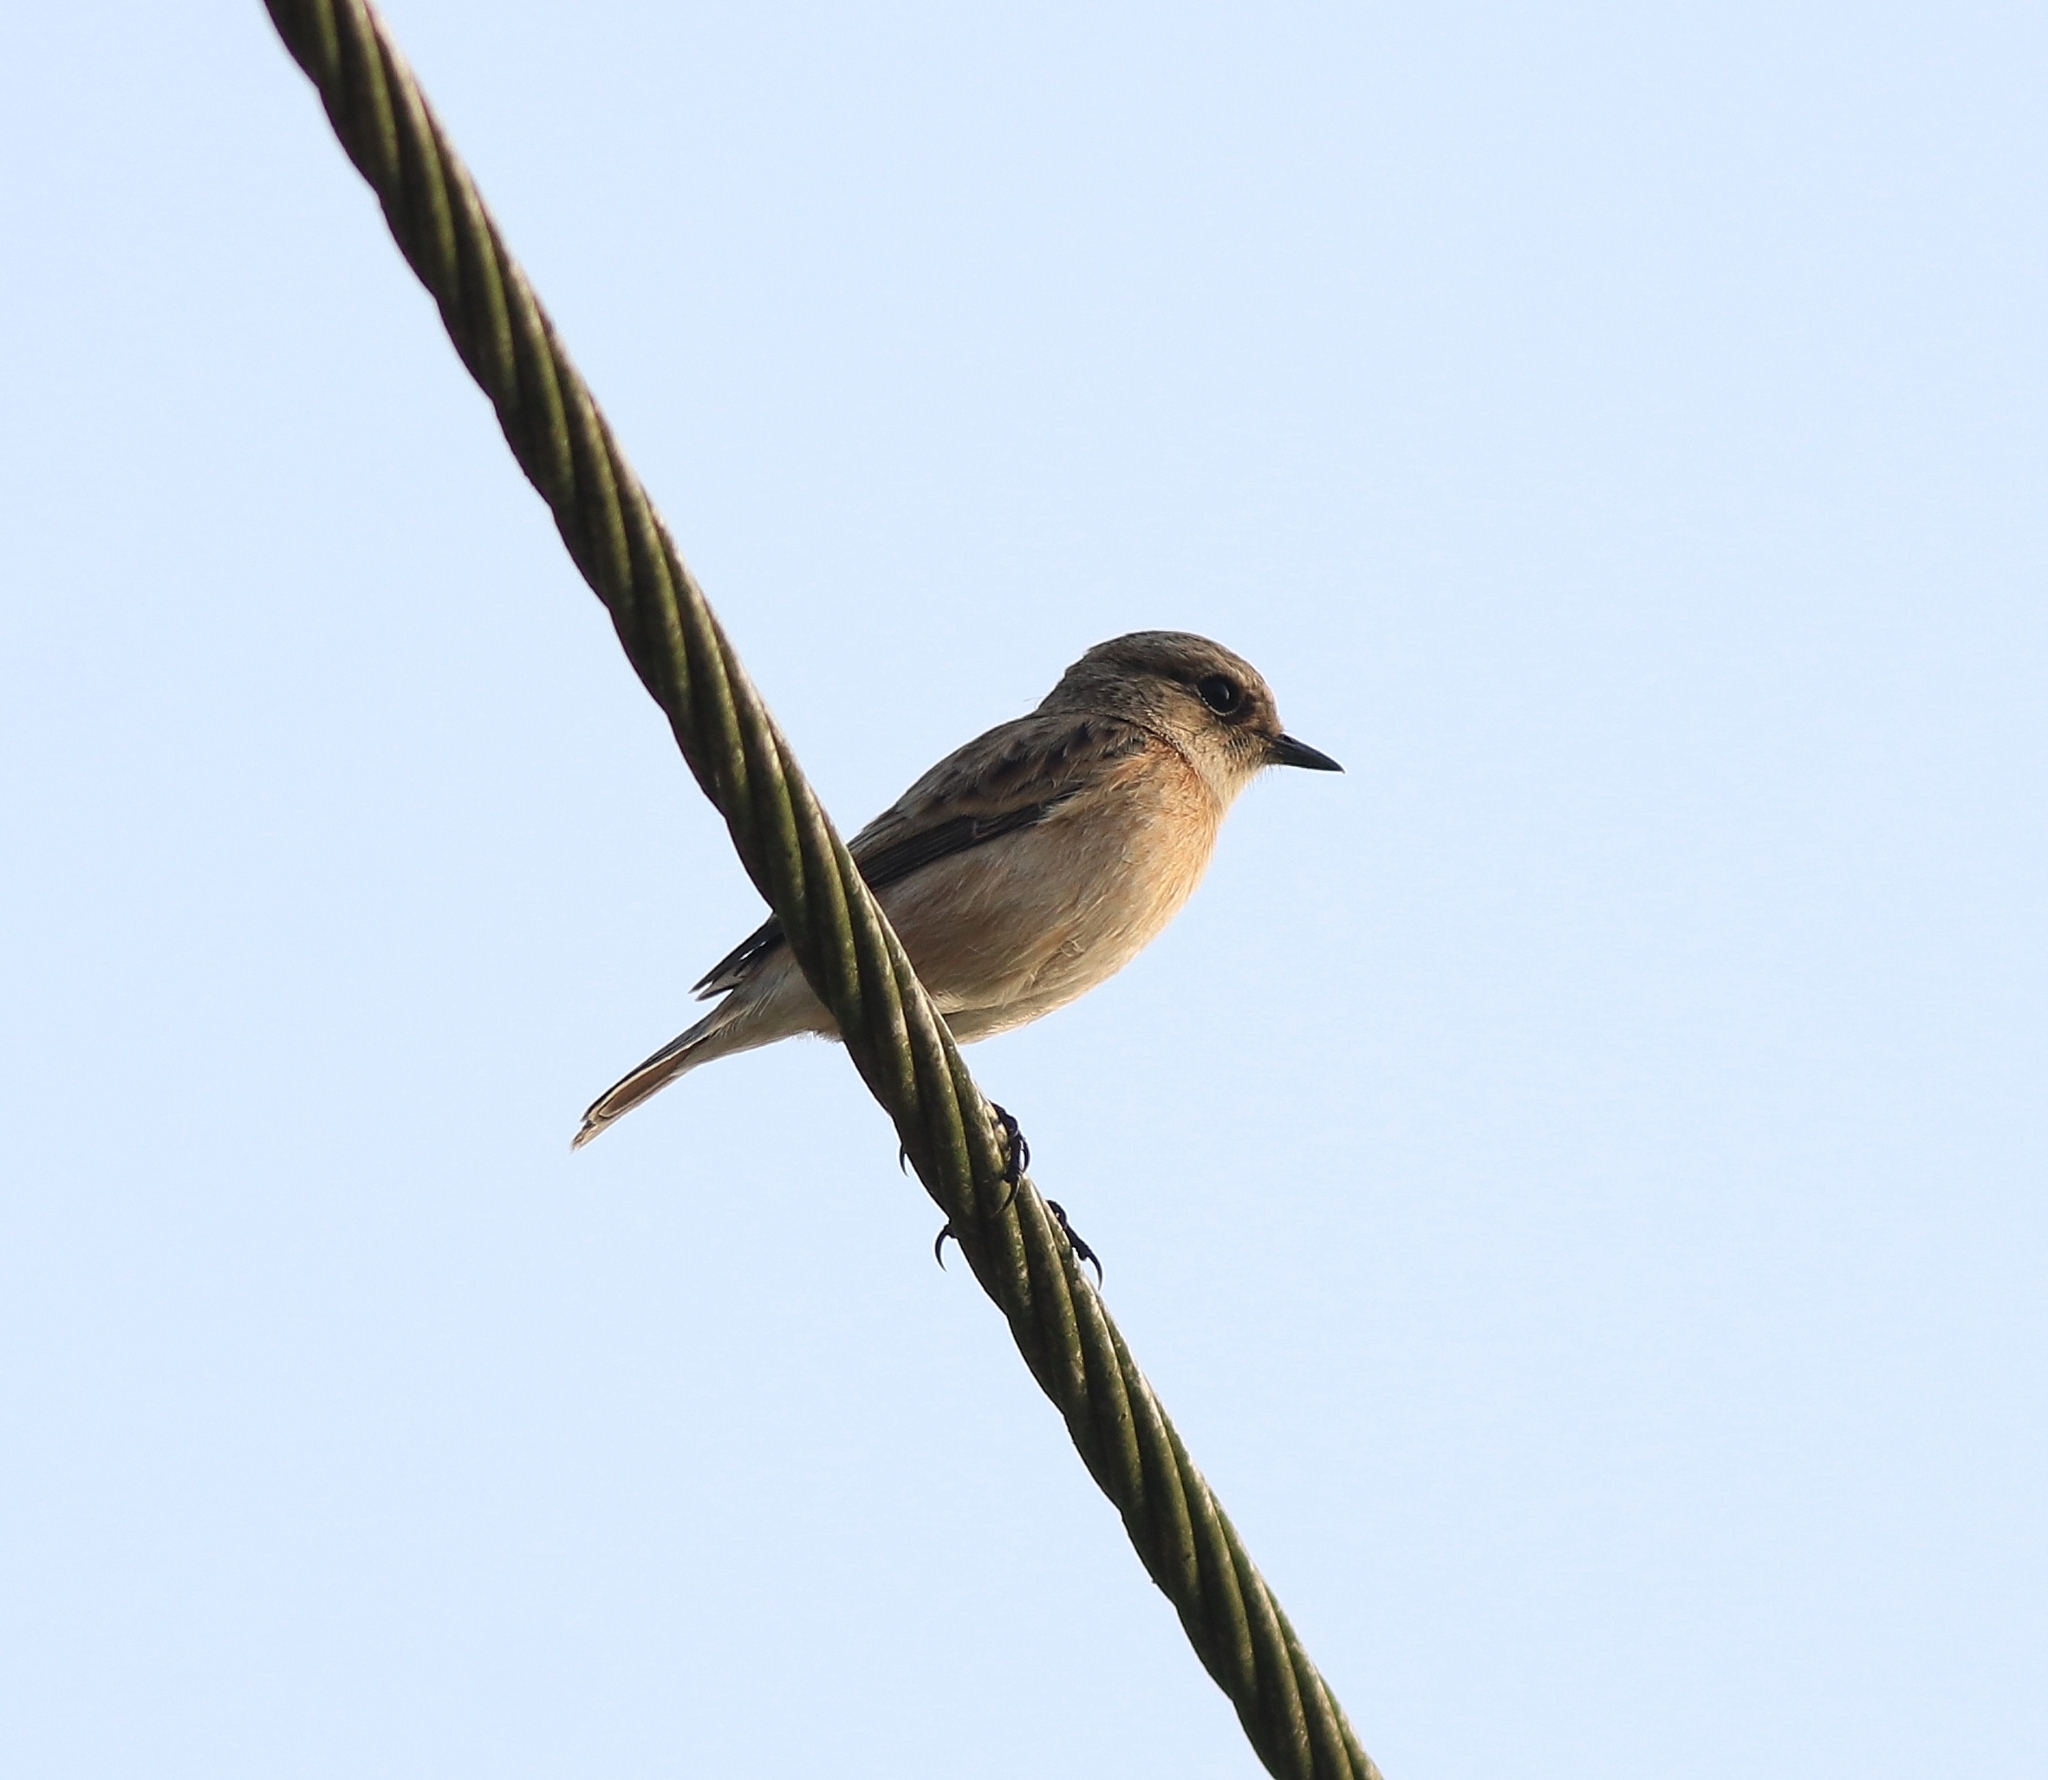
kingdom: Animalia
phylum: Chordata
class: Aves
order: Passeriformes
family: Muscicapidae
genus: Saxicola
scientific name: Saxicola maurus
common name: Siberian stonechat
